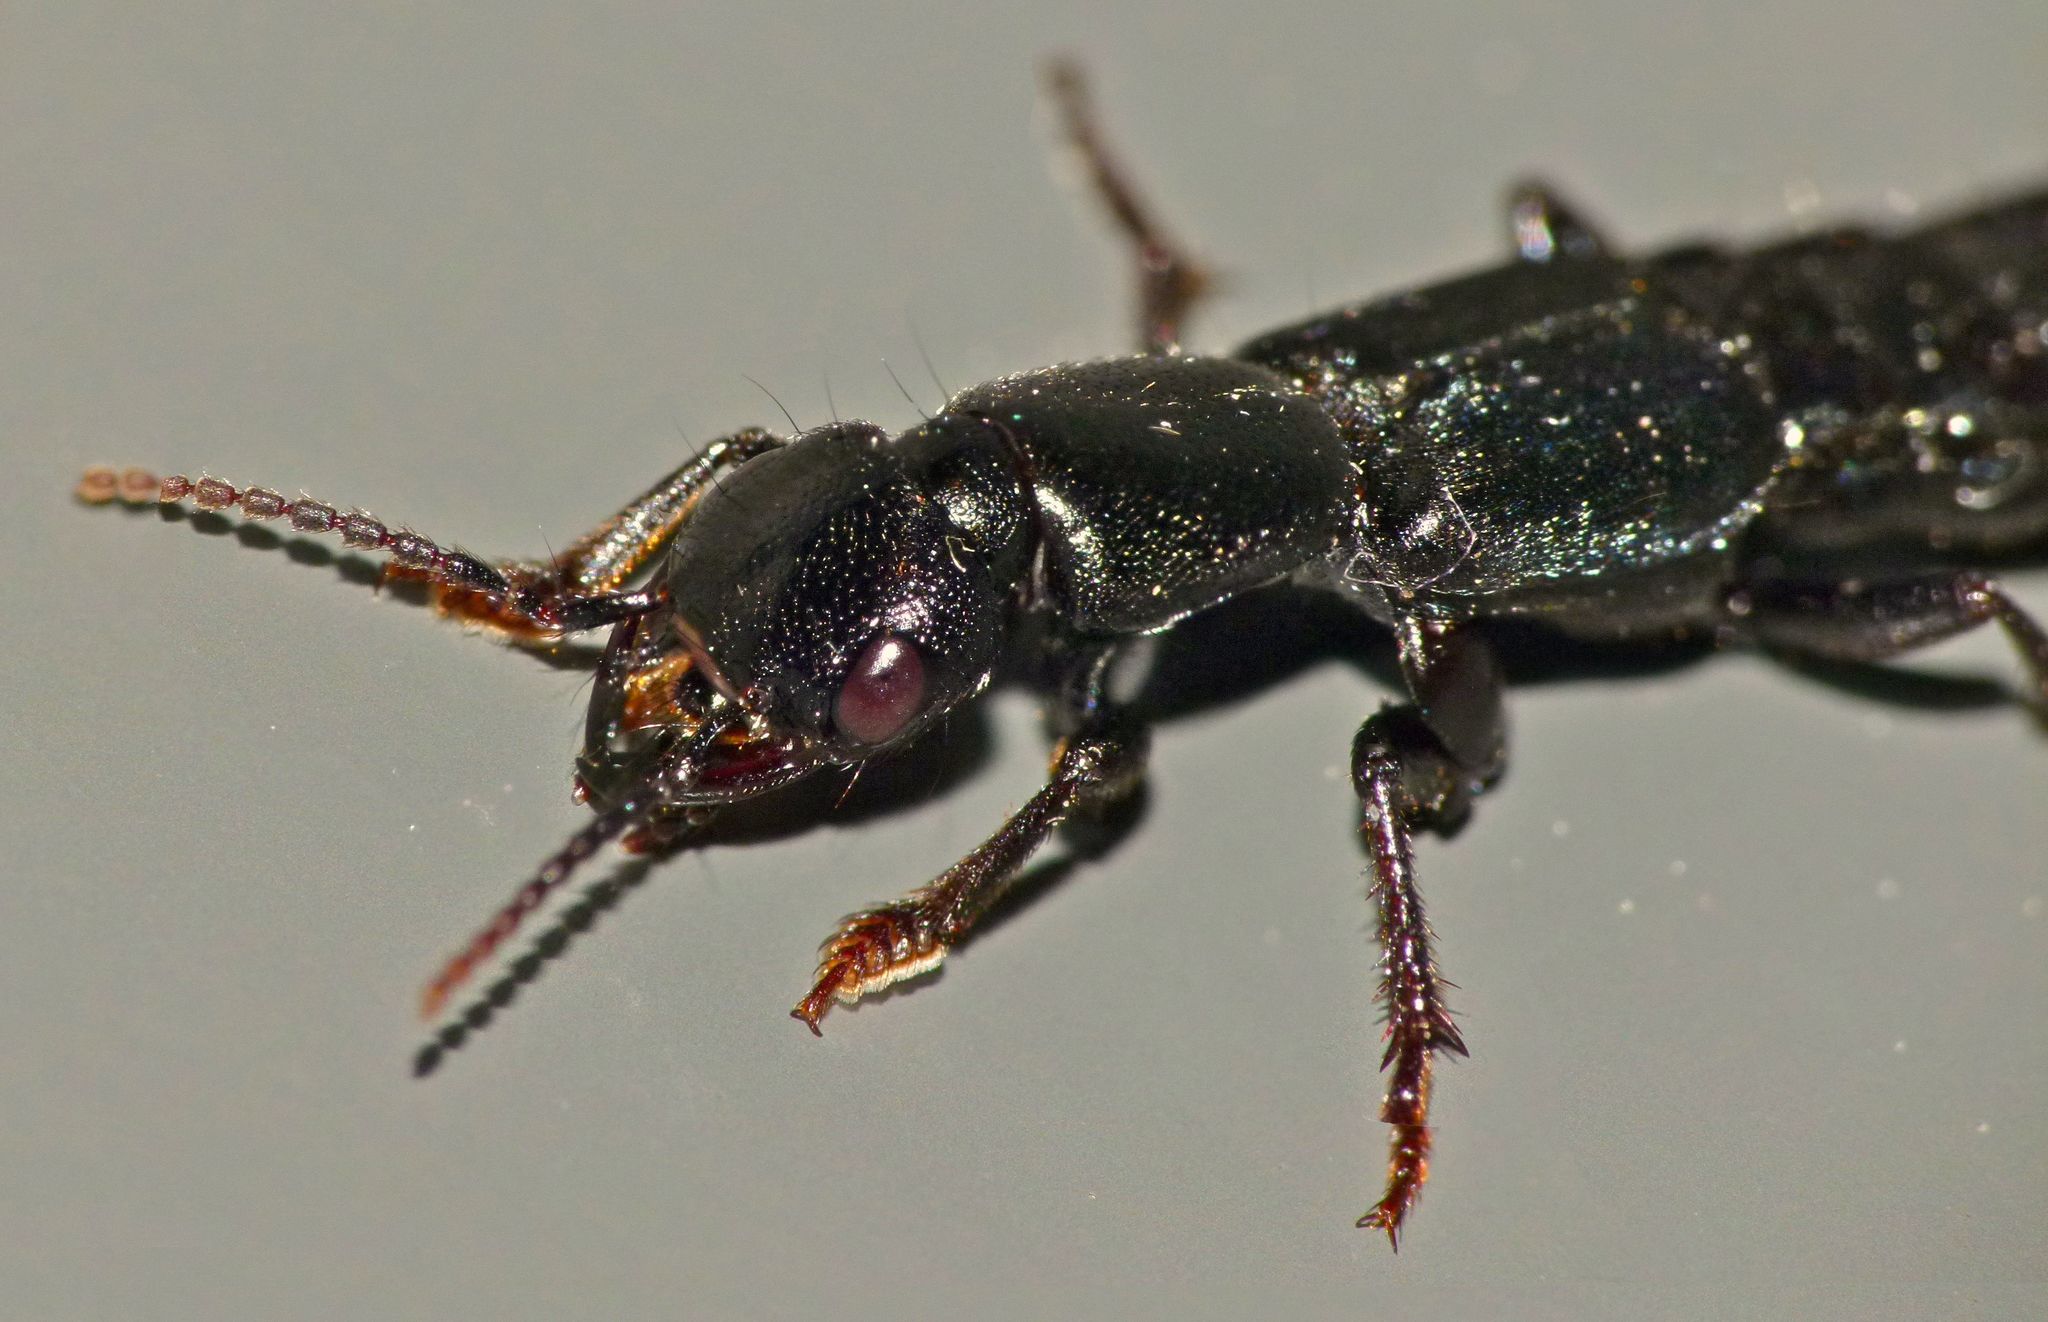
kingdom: Animalia
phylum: Arthropoda
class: Insecta
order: Coleoptera
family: Staphylinidae
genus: Tasgius
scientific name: Tasgius ater
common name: Staph beetle
